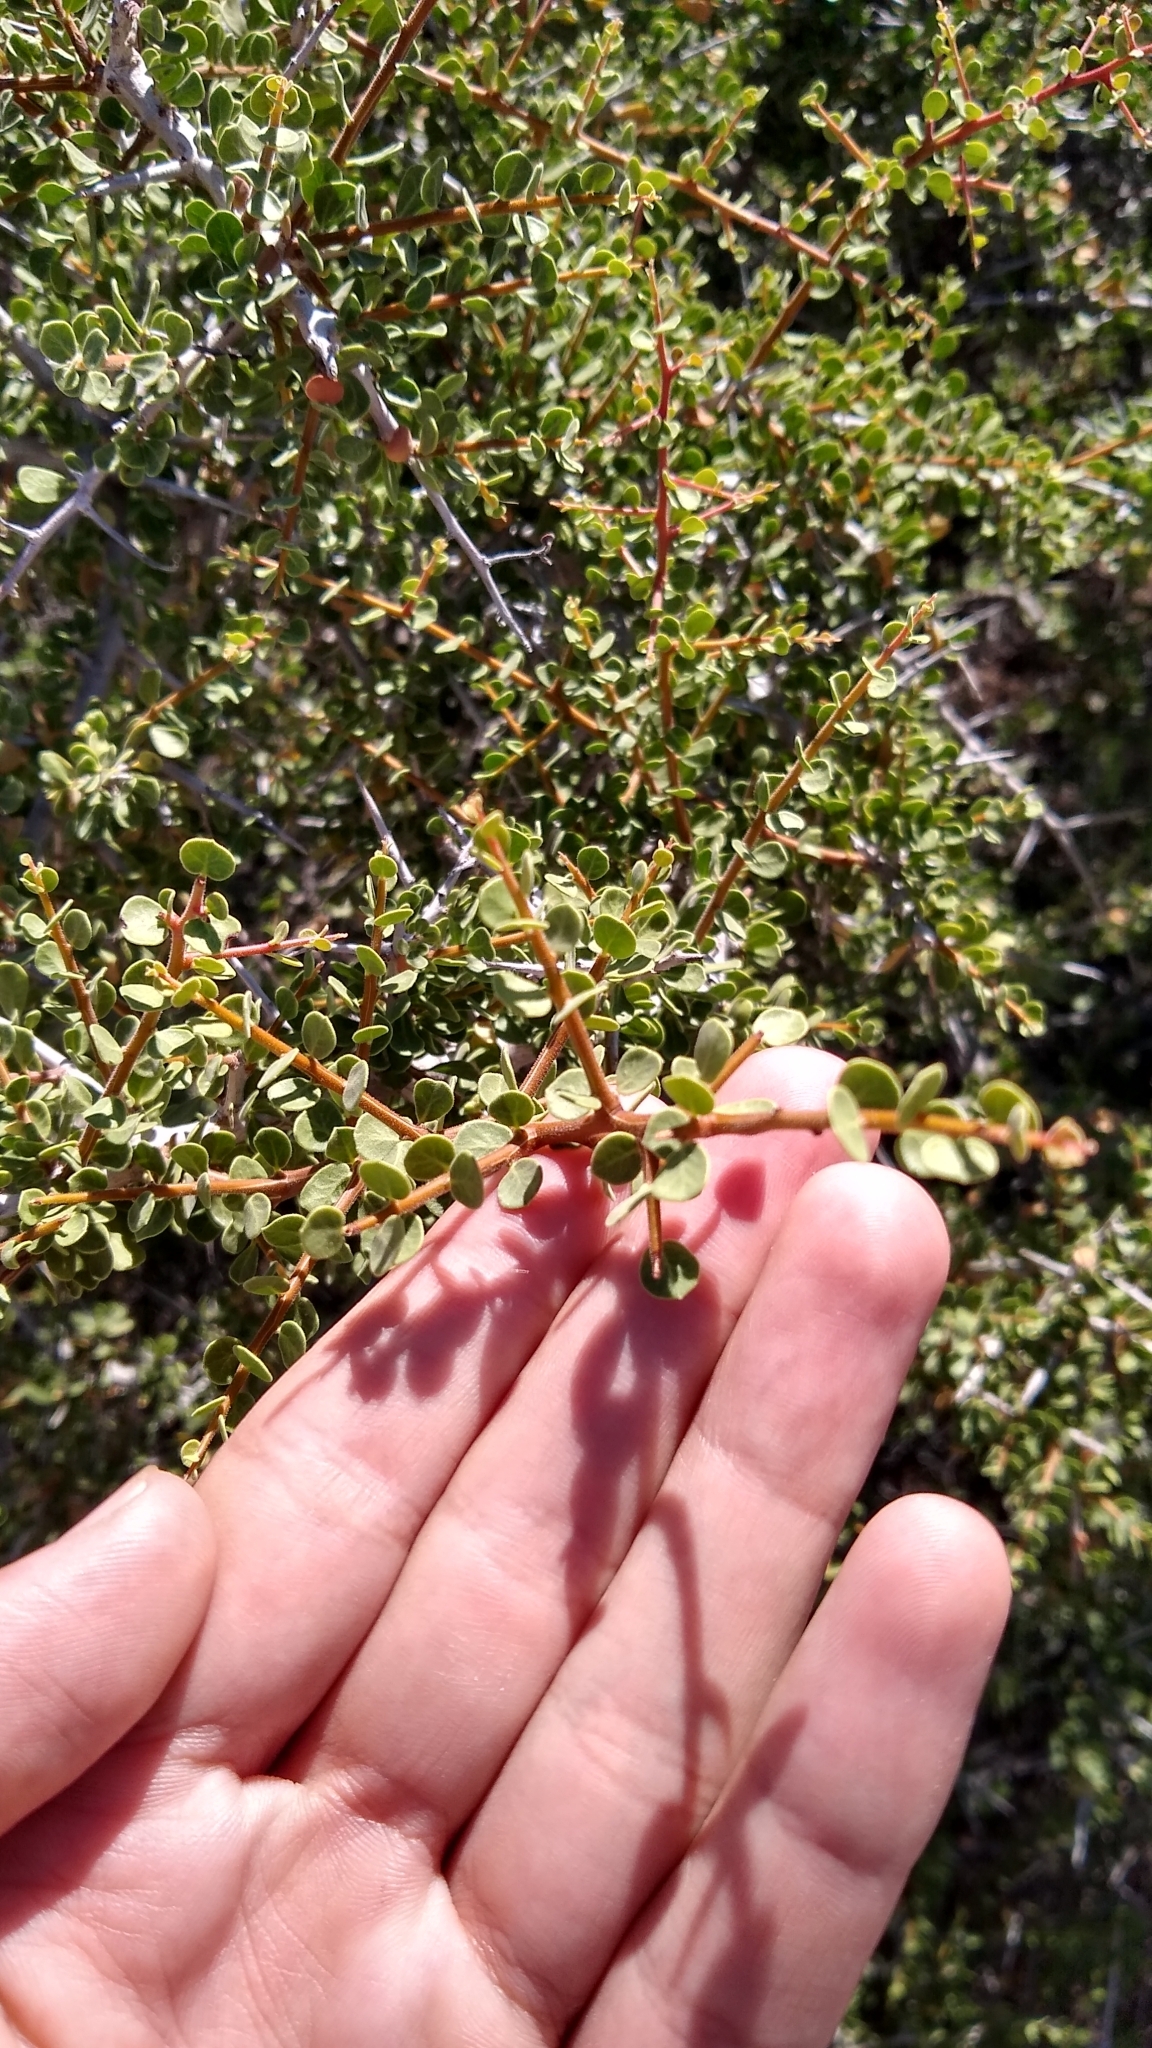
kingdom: Plantae
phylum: Tracheophyta
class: Magnoliopsida
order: Sapindales
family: Anacardiaceae
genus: Schinus
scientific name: Schinus johnstonii
